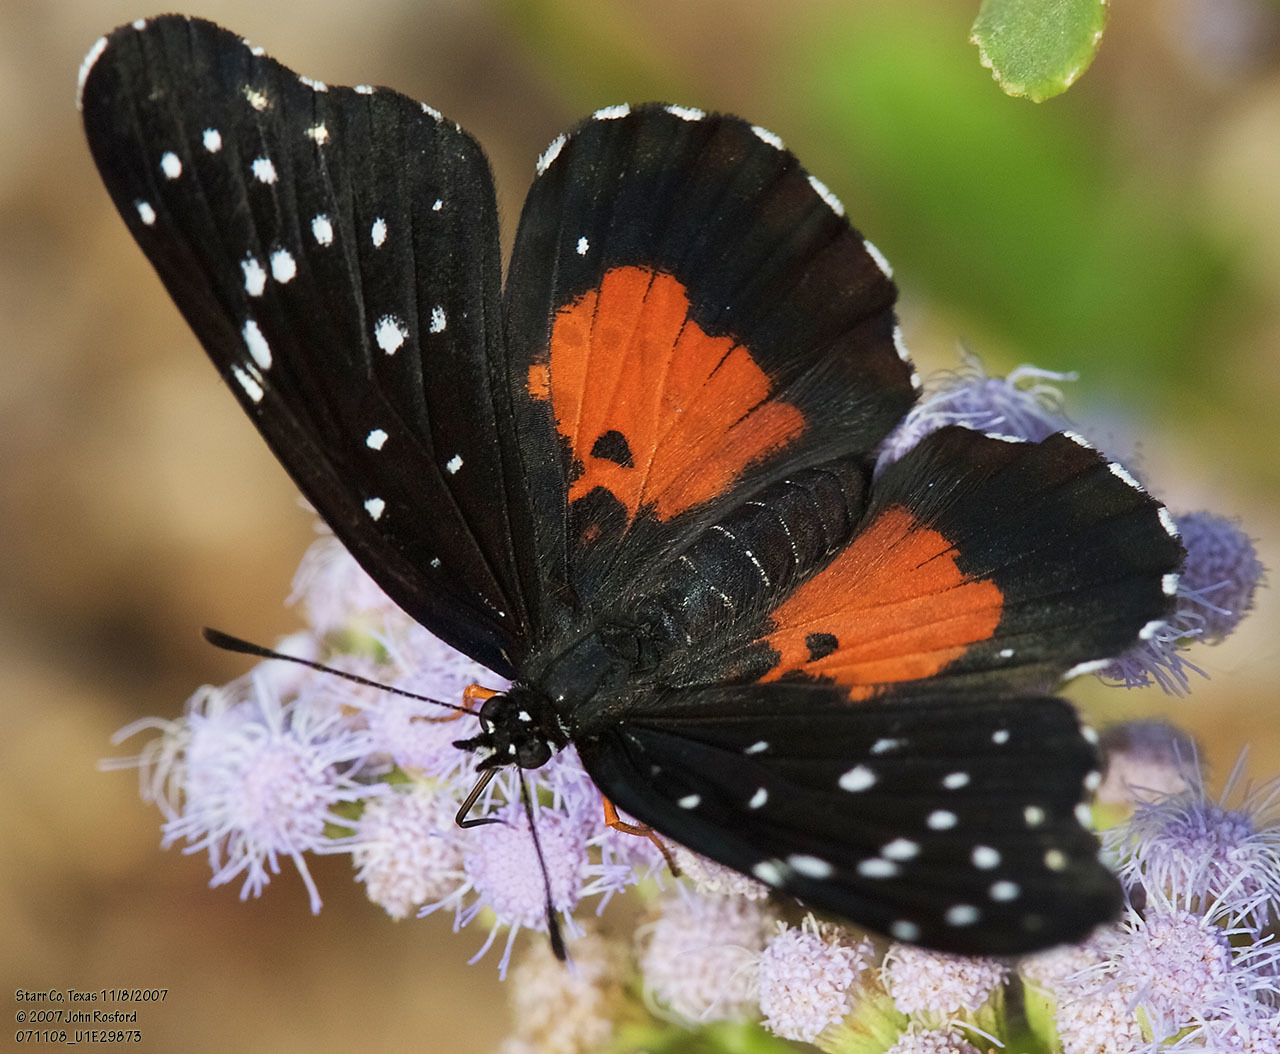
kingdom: Animalia
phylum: Arthropoda
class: Insecta
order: Lepidoptera
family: Nymphalidae
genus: Chlosyne
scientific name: Chlosyne janais
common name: Crimson patch
